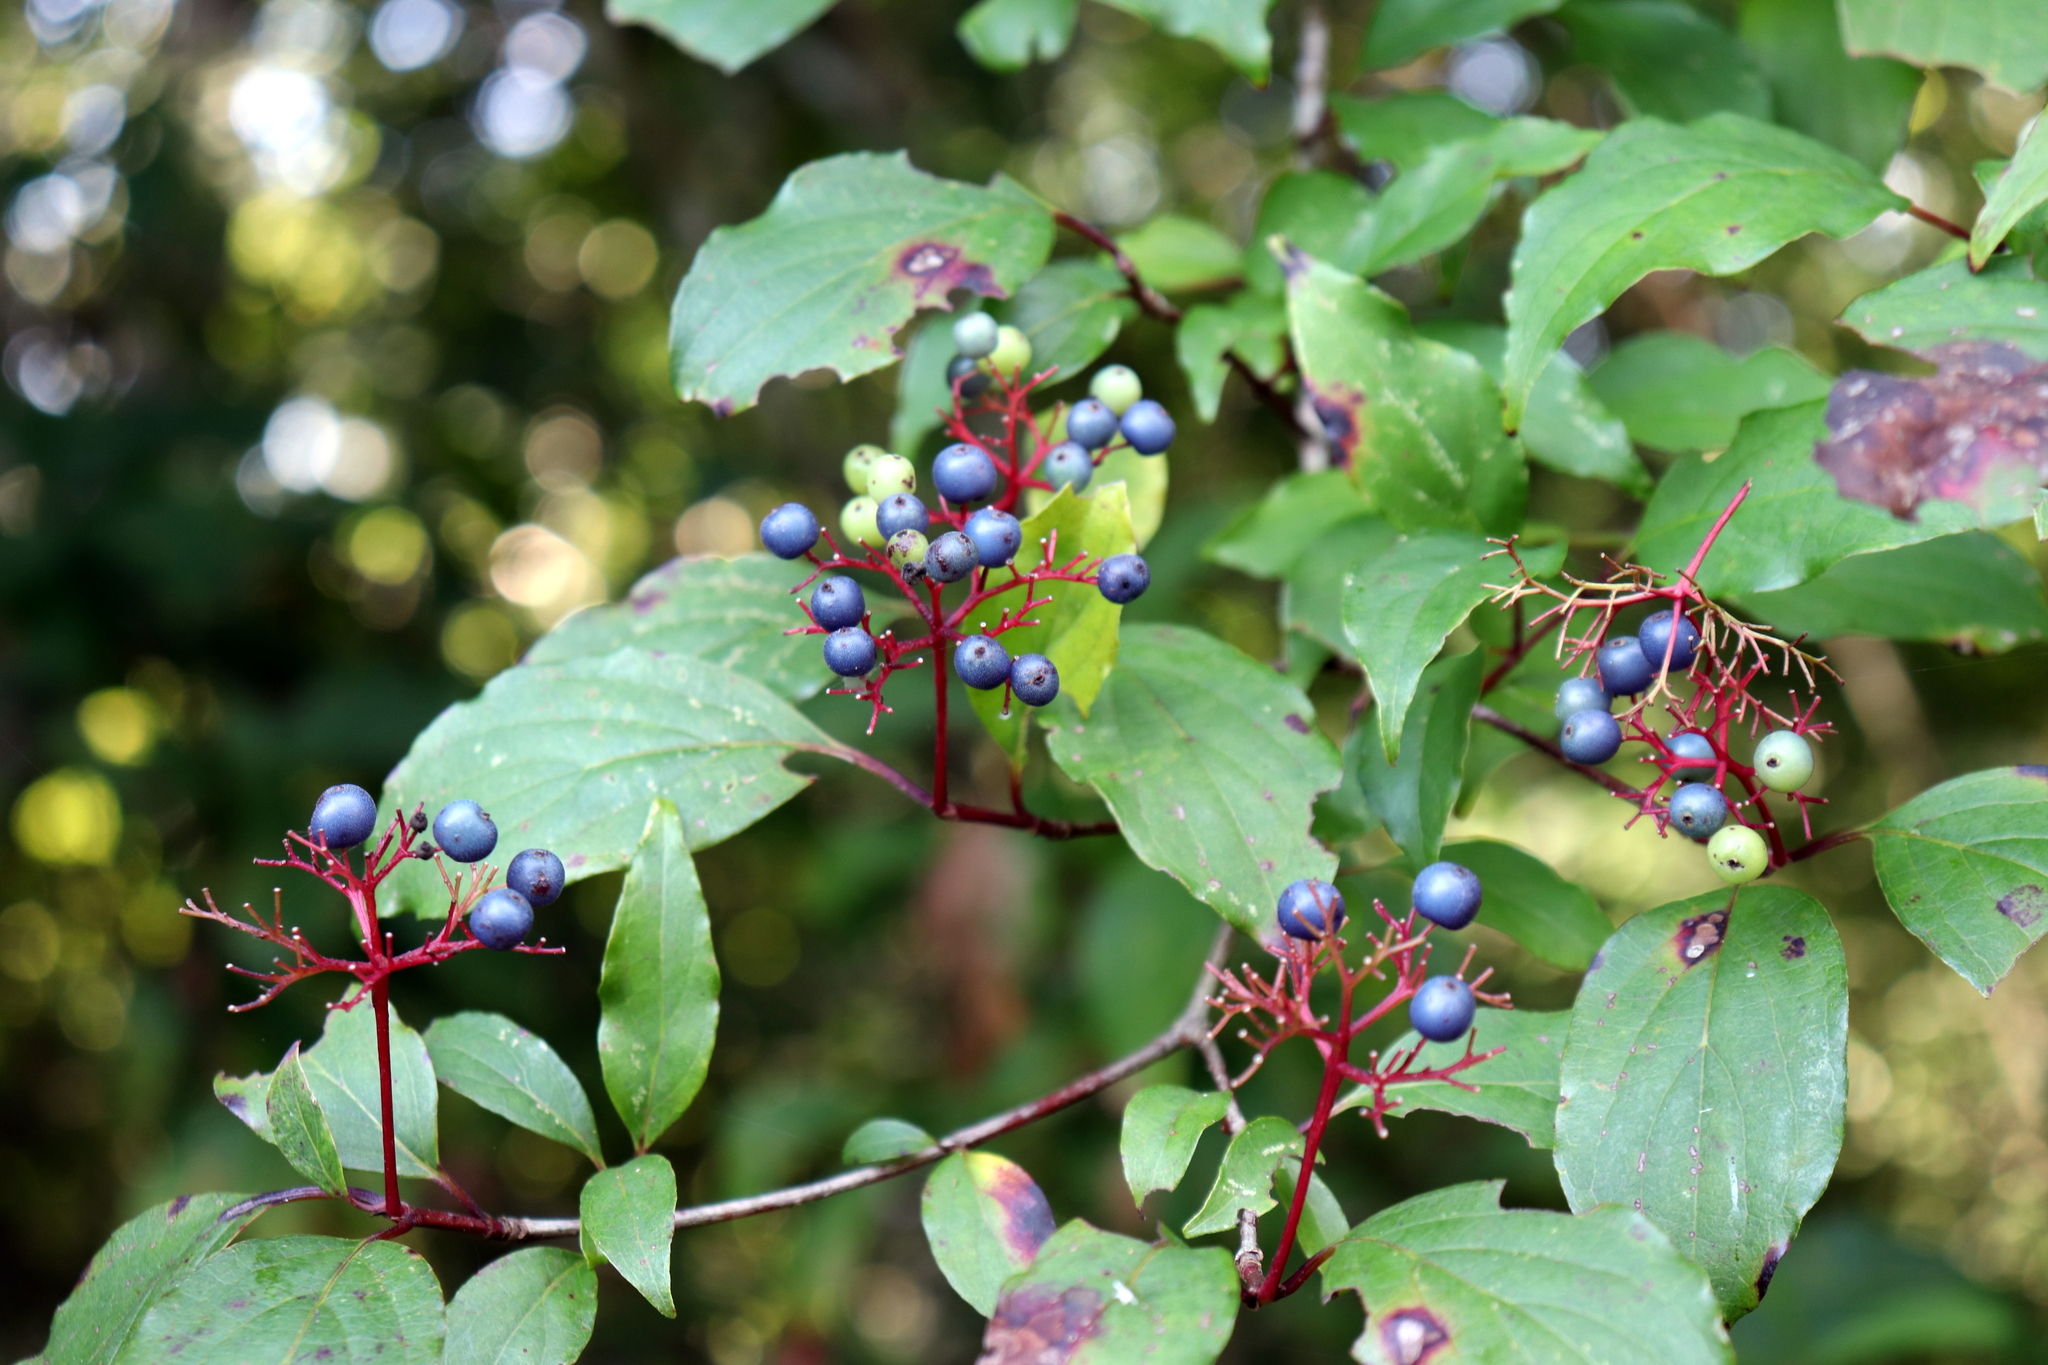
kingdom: Plantae
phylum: Tracheophyta
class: Magnoliopsida
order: Cornales
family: Cornaceae
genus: Cornus
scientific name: Cornus foemina
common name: Swamp dogwood
